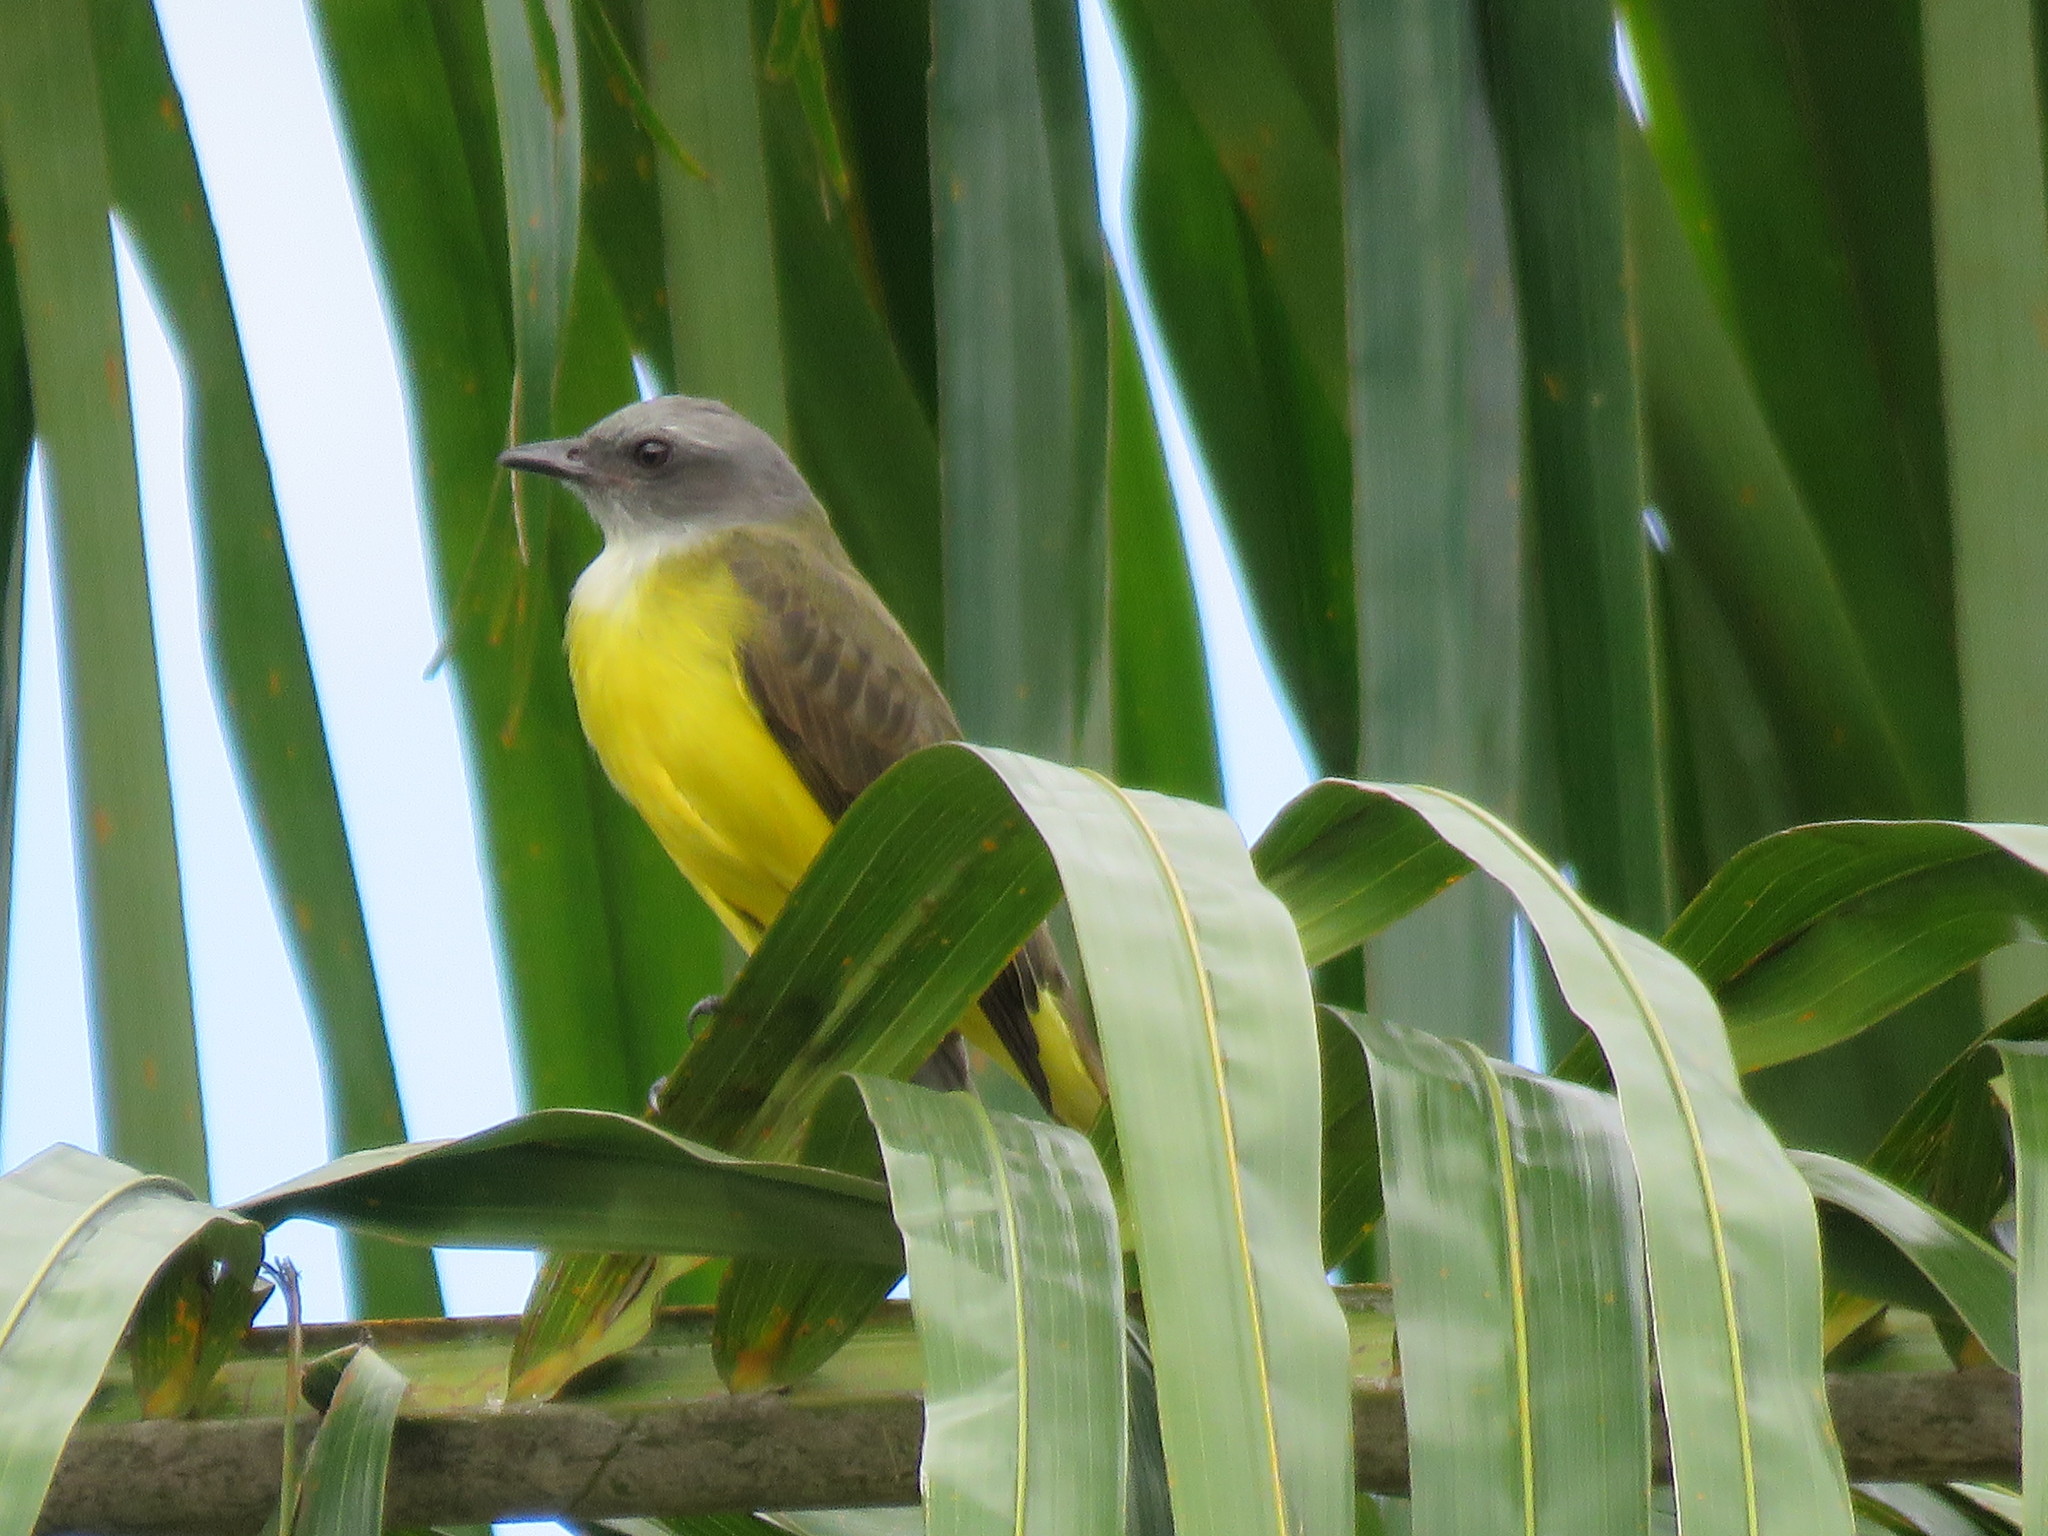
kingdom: Animalia
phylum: Chordata
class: Aves
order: Passeriformes
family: Tyrannidae
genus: Tyrannopsis
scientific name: Tyrannopsis sulphurea
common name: Sulphury flycatcher
